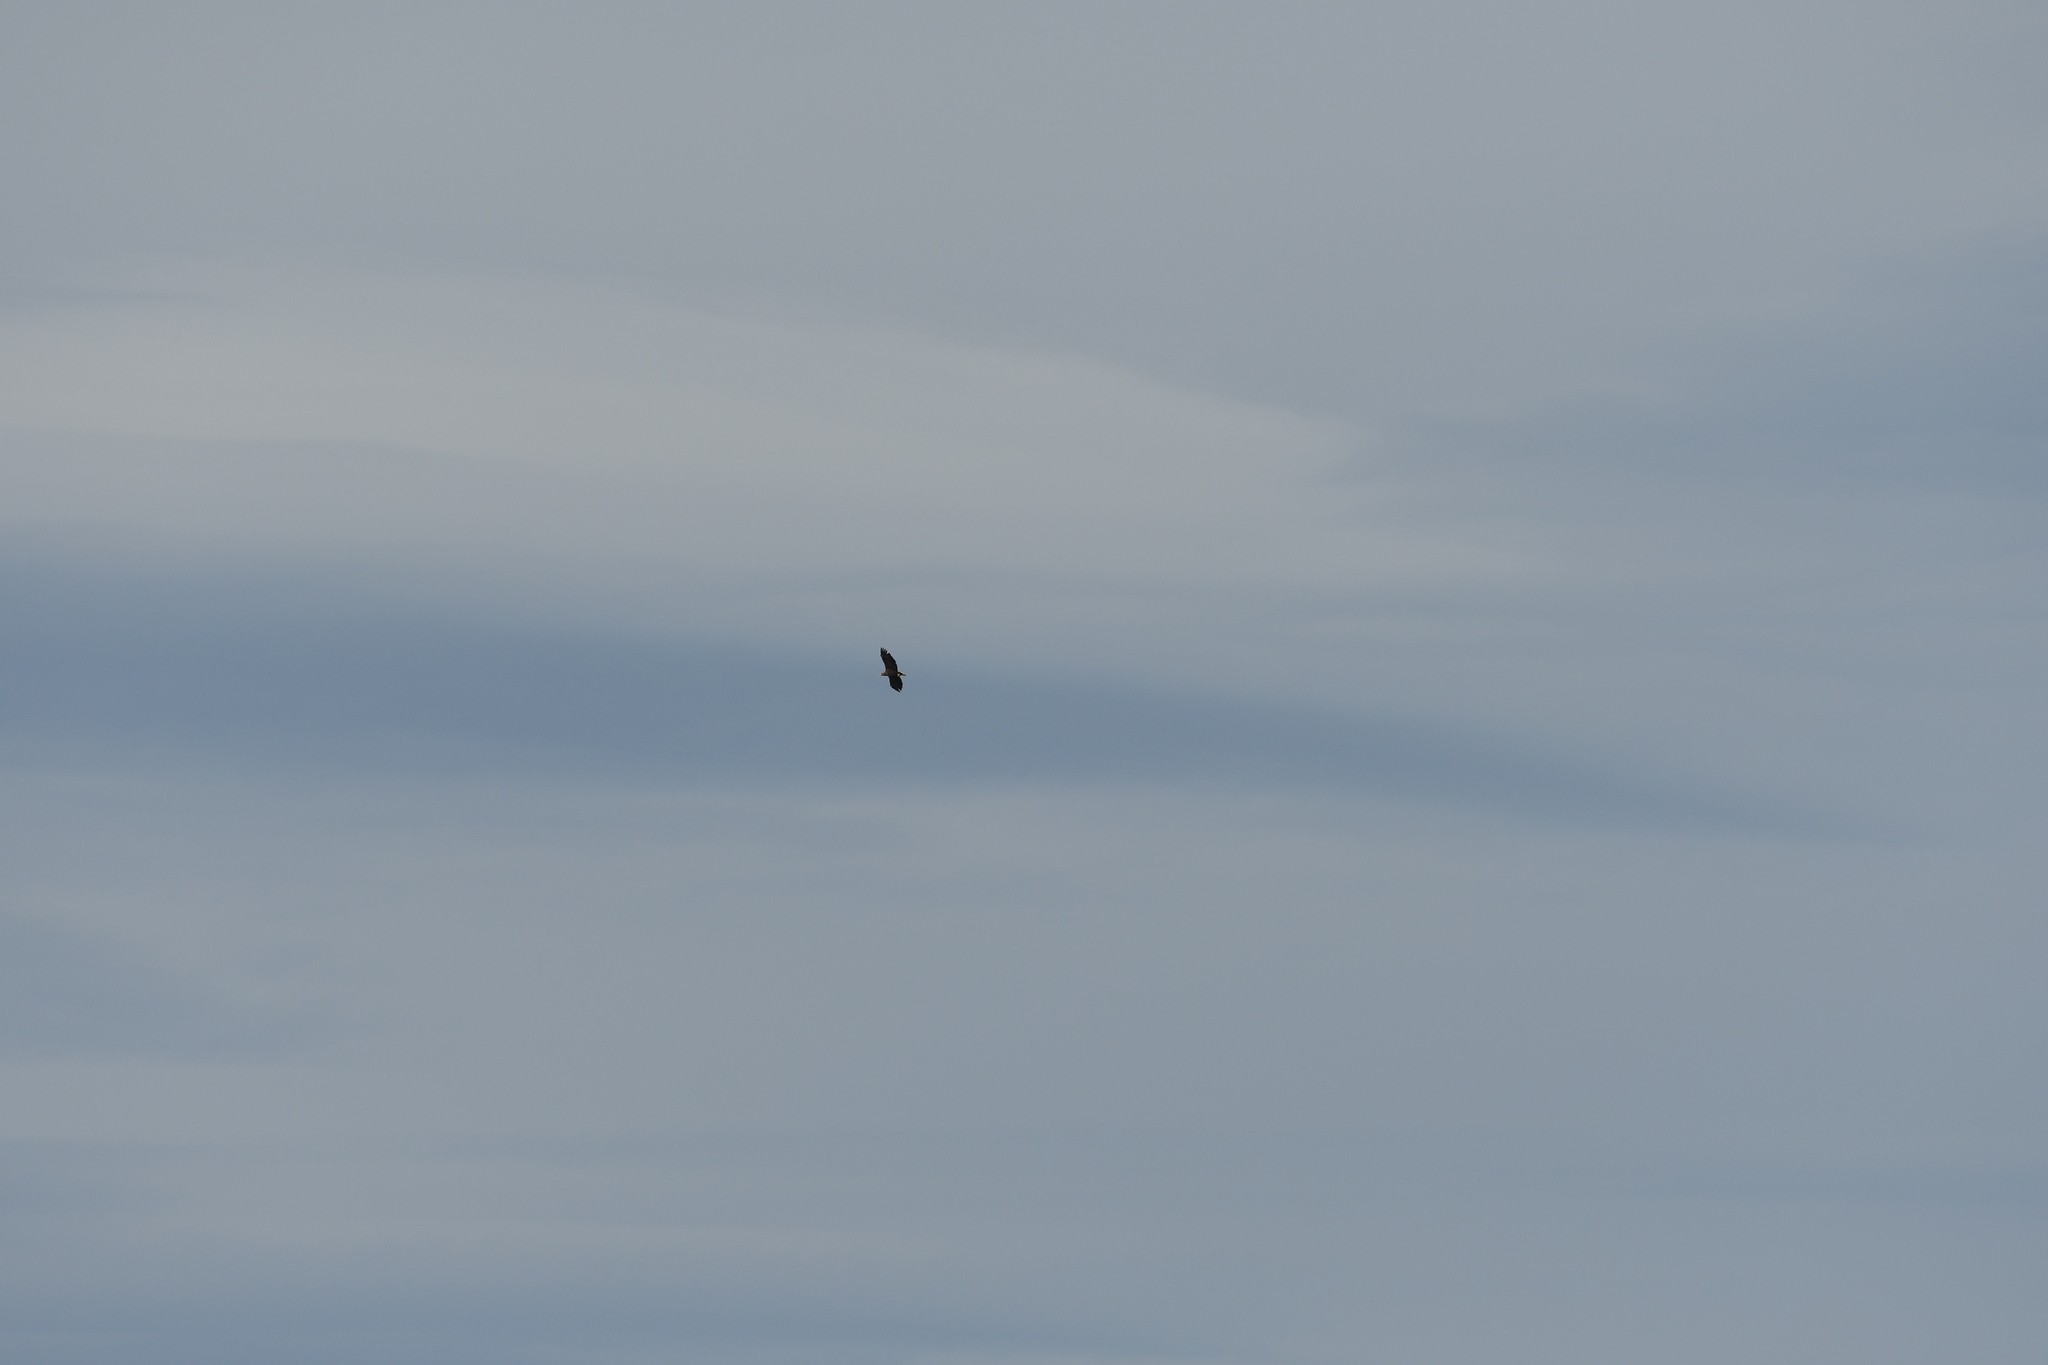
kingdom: Animalia
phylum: Chordata
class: Aves
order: Accipitriformes
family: Accipitridae
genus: Haliaeetus
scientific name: Haliaeetus albicilla
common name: White-tailed eagle
